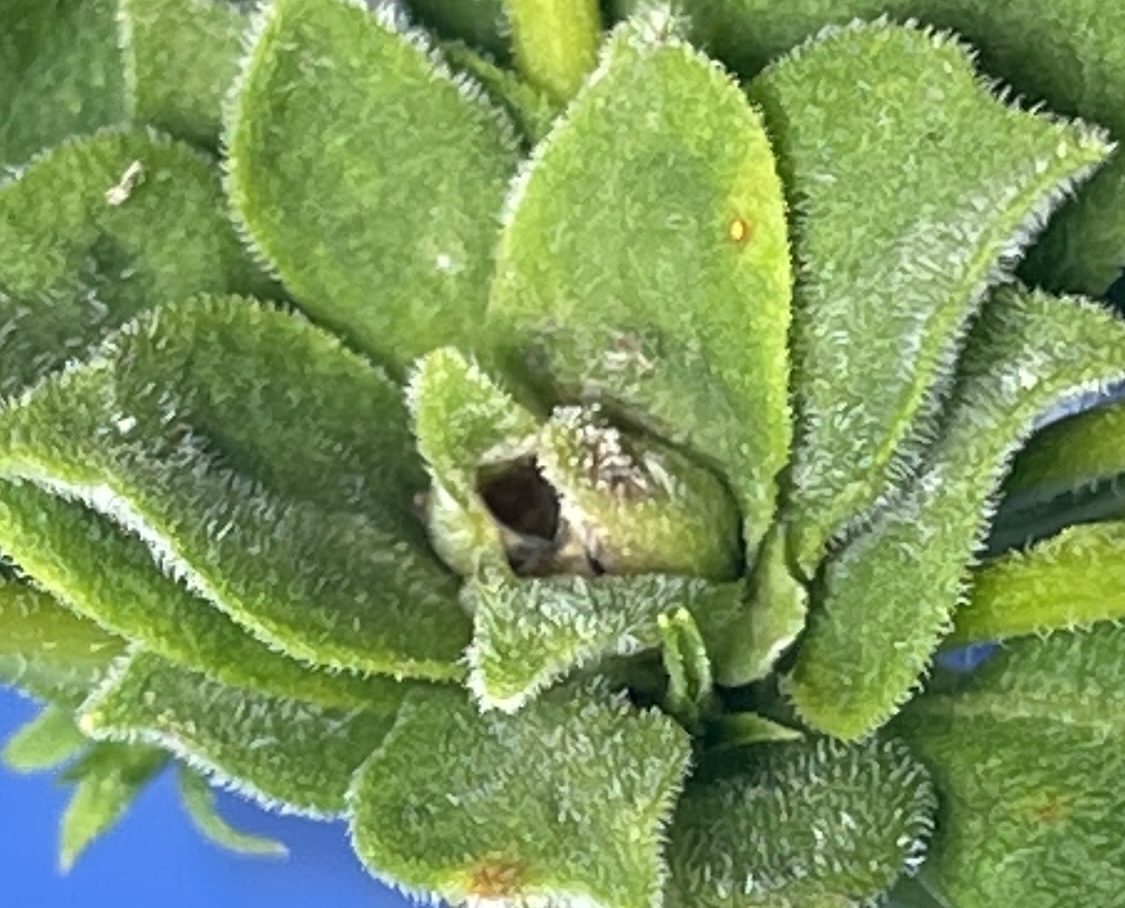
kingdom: Animalia
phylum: Arthropoda
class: Insecta
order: Diptera
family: Cecidomyiidae
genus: Asphondylia
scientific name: Asphondylia solidaginis
